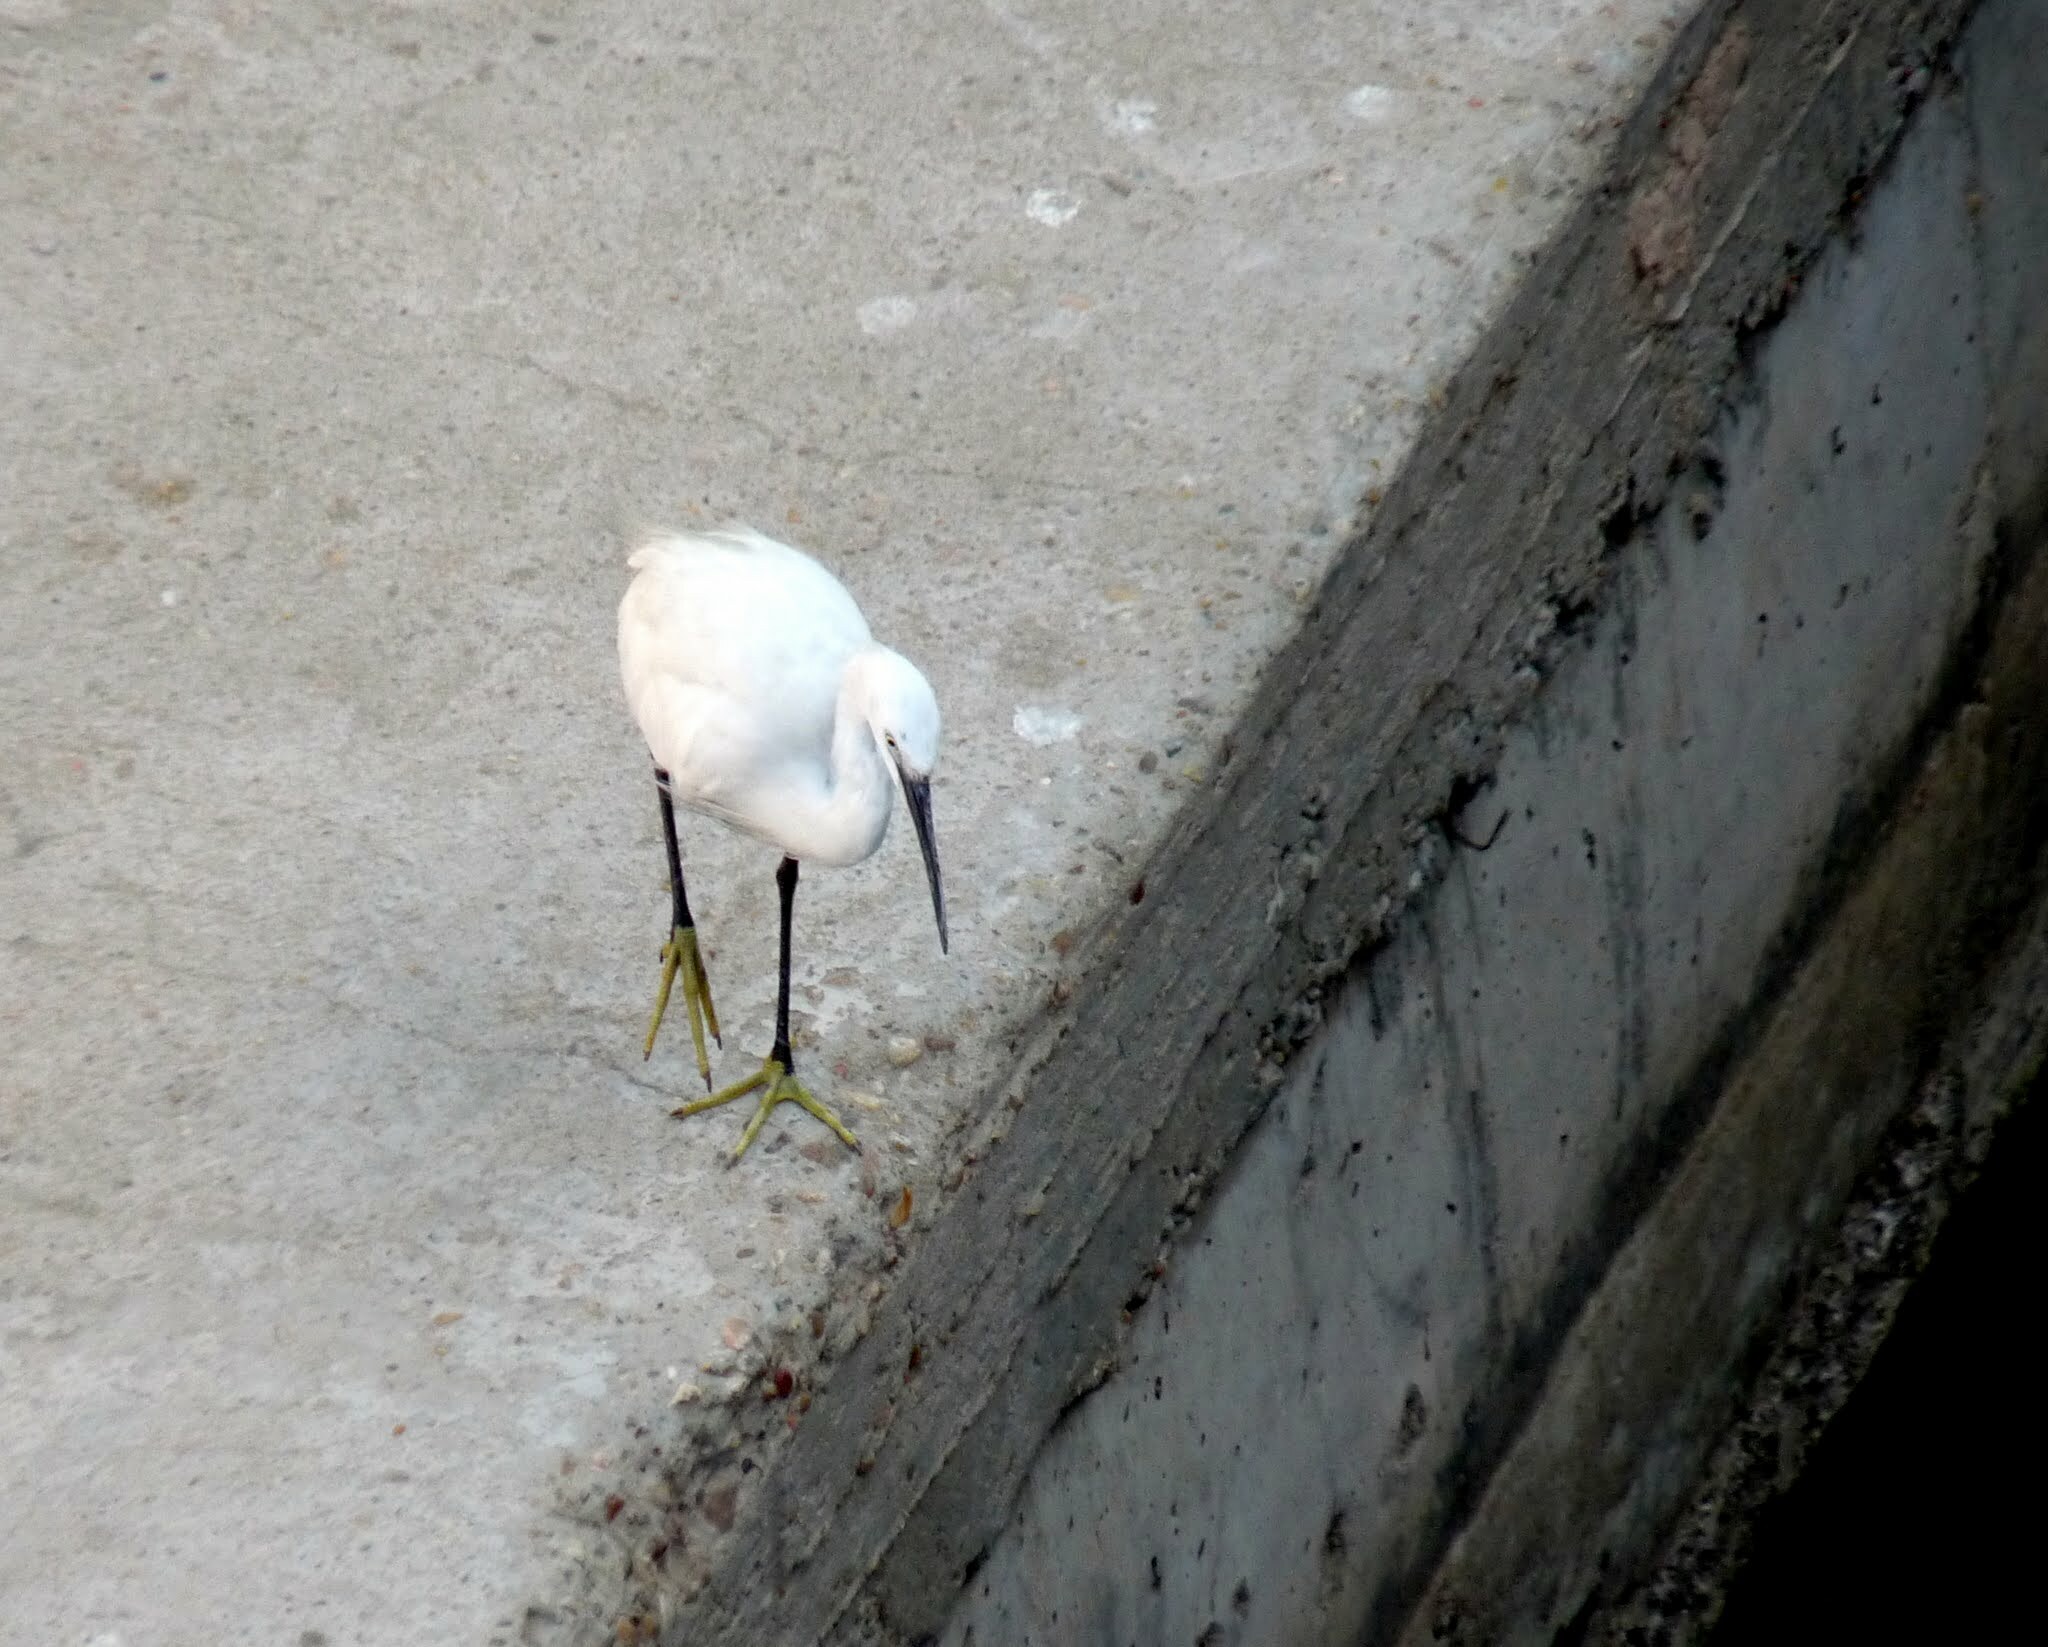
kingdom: Animalia
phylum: Chordata
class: Aves
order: Pelecaniformes
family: Ardeidae
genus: Egretta
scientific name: Egretta garzetta
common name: Little egret
